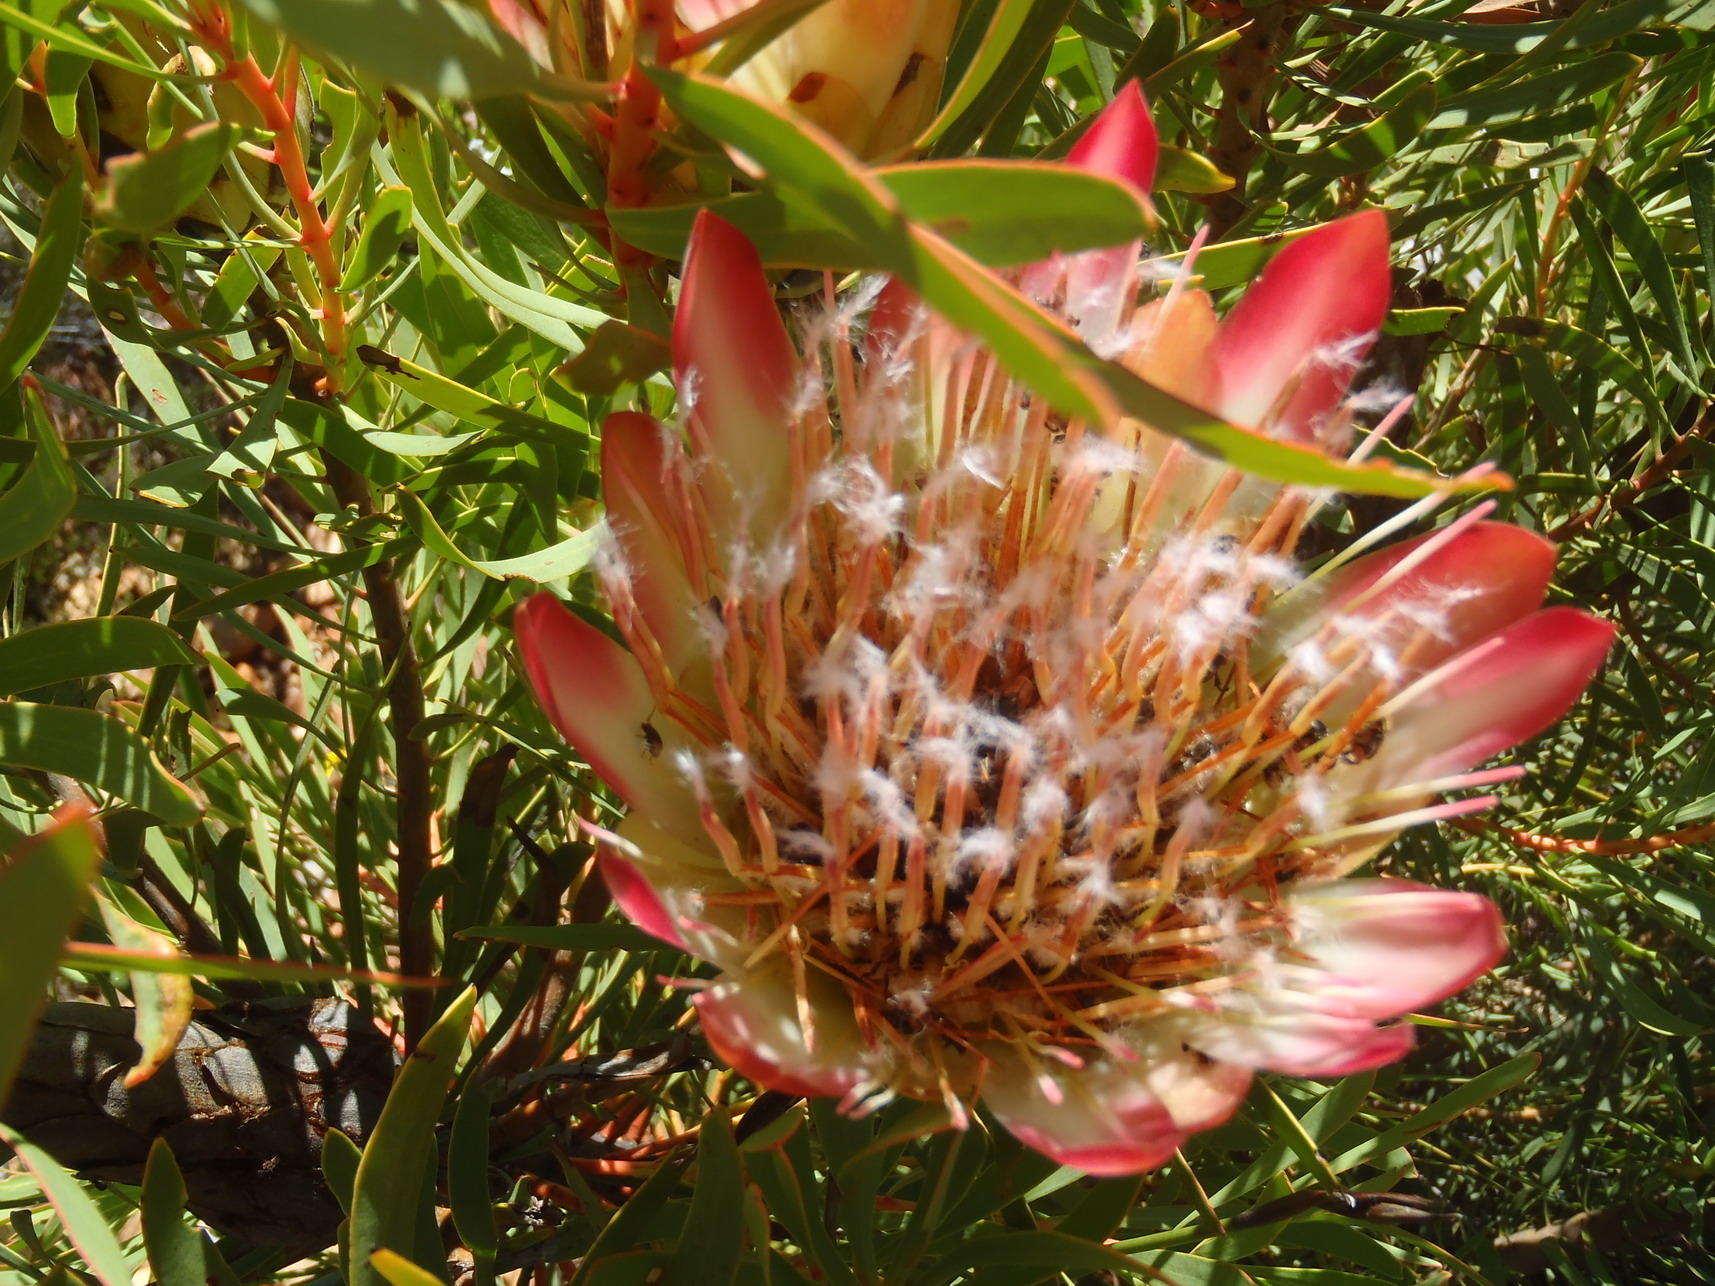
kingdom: Plantae
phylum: Tracheophyta
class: Magnoliopsida
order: Proteales
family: Proteaceae
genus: Protea
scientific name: Protea repens
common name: Sugarbush
